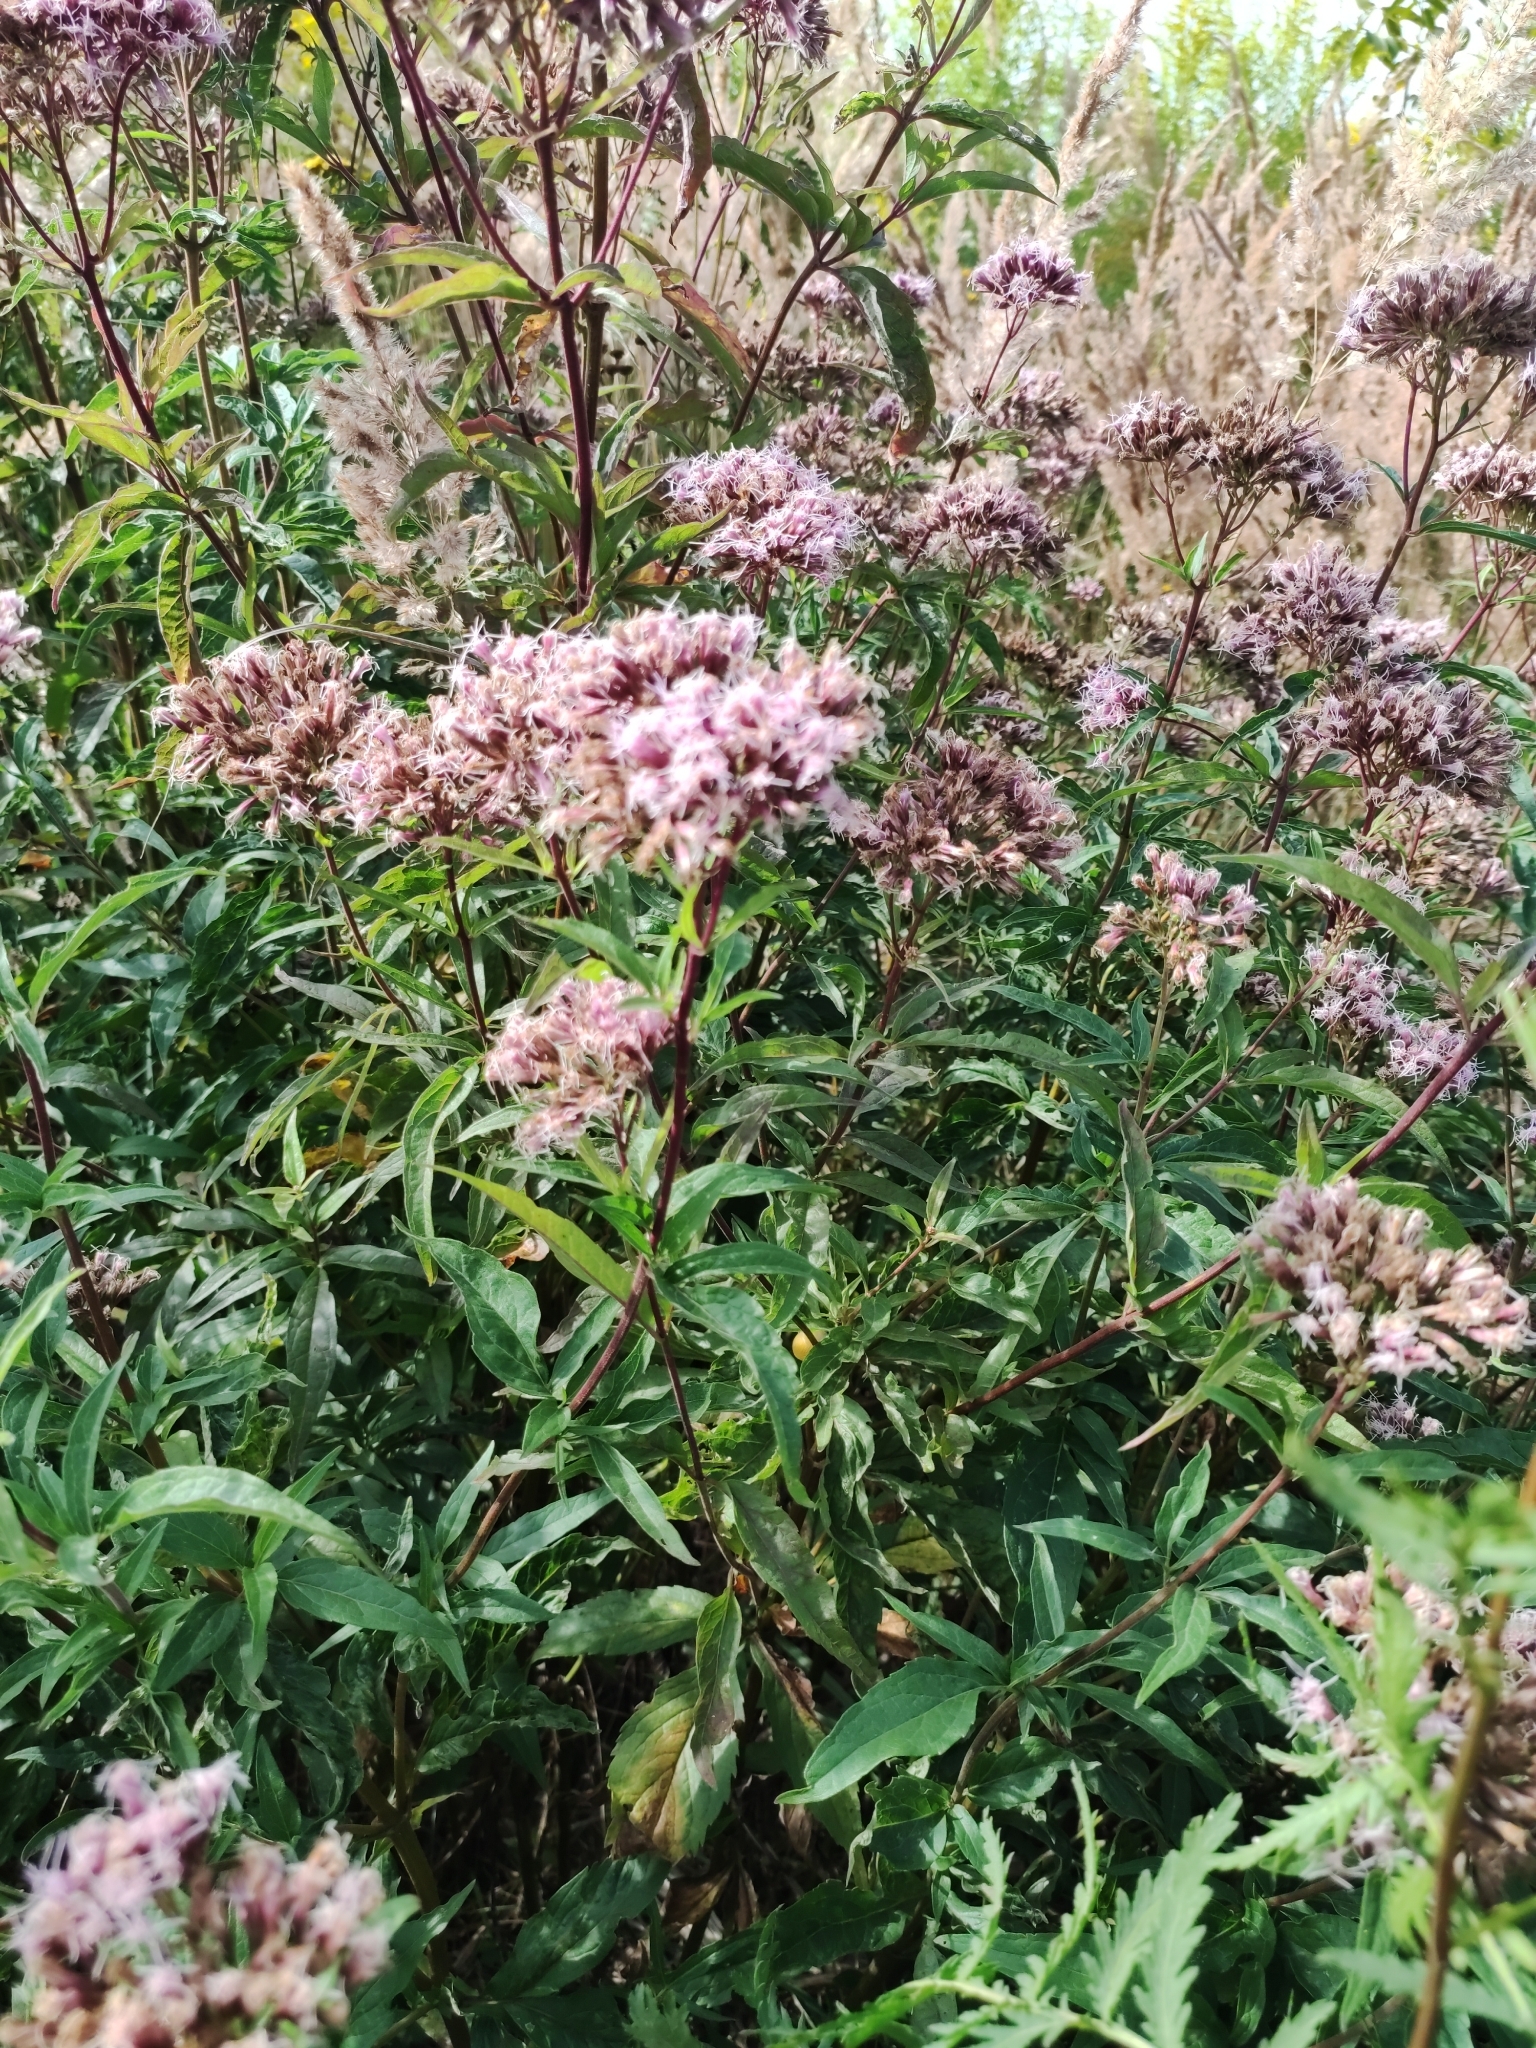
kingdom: Plantae
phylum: Tracheophyta
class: Magnoliopsida
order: Asterales
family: Asteraceae
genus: Eupatorium
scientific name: Eupatorium cannabinum
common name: Hemp-agrimony
